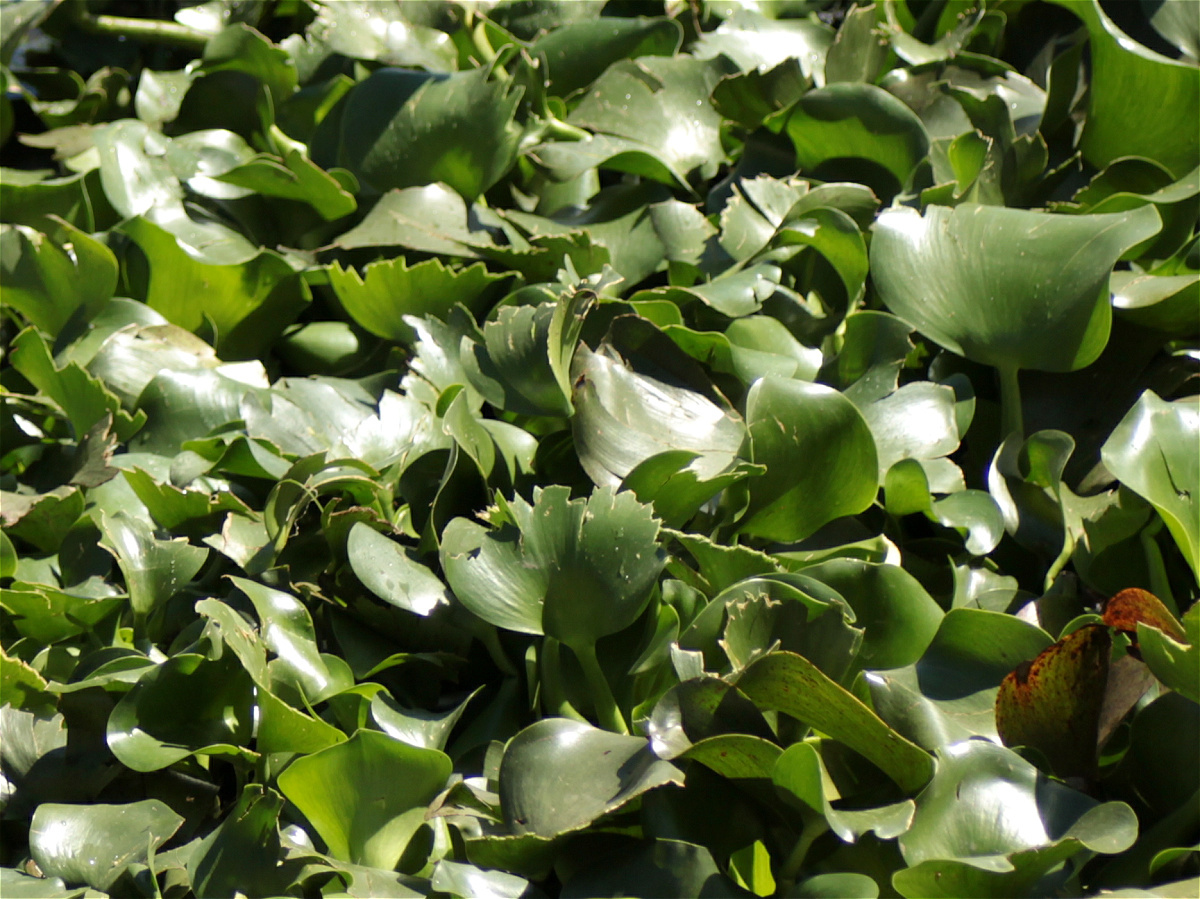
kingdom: Plantae
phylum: Tracheophyta
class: Liliopsida
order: Commelinales
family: Pontederiaceae
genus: Pontederia
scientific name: Pontederia crassipes
